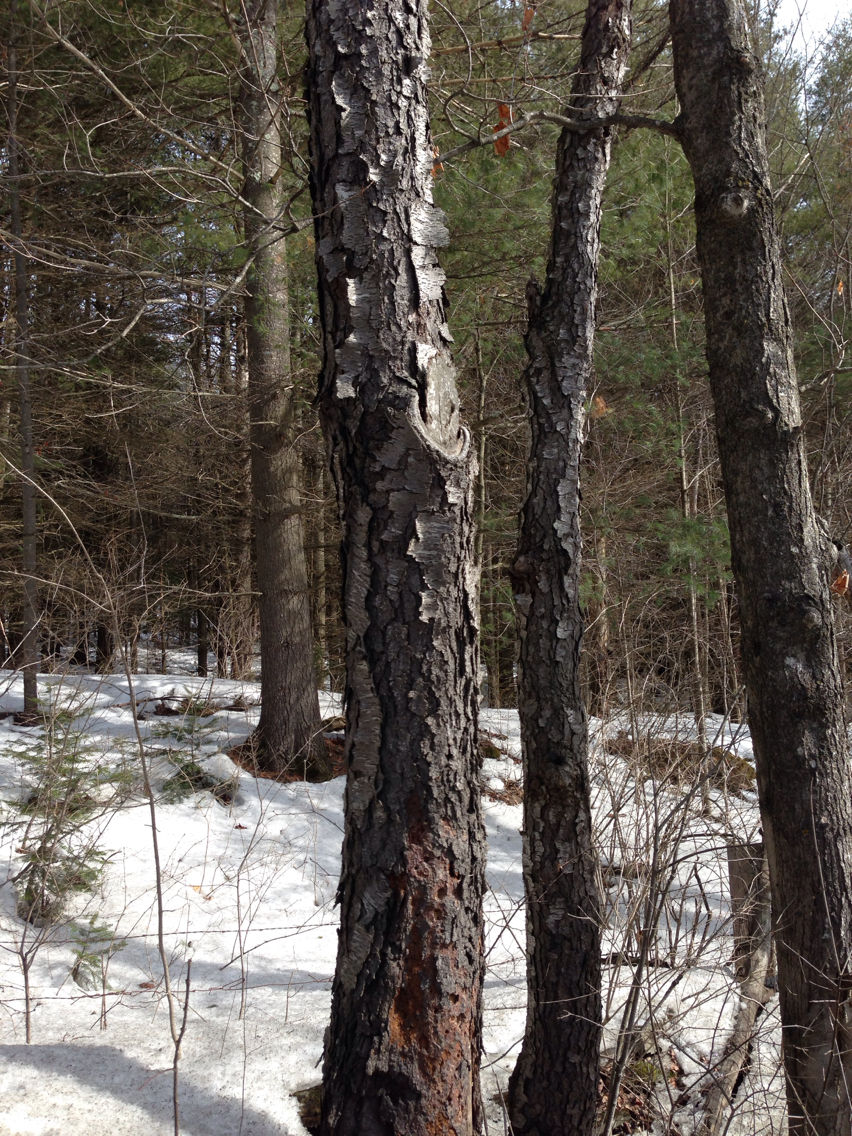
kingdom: Plantae
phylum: Tracheophyta
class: Magnoliopsida
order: Rosales
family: Rosaceae
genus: Prunus
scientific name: Prunus serotina
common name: Black cherry
